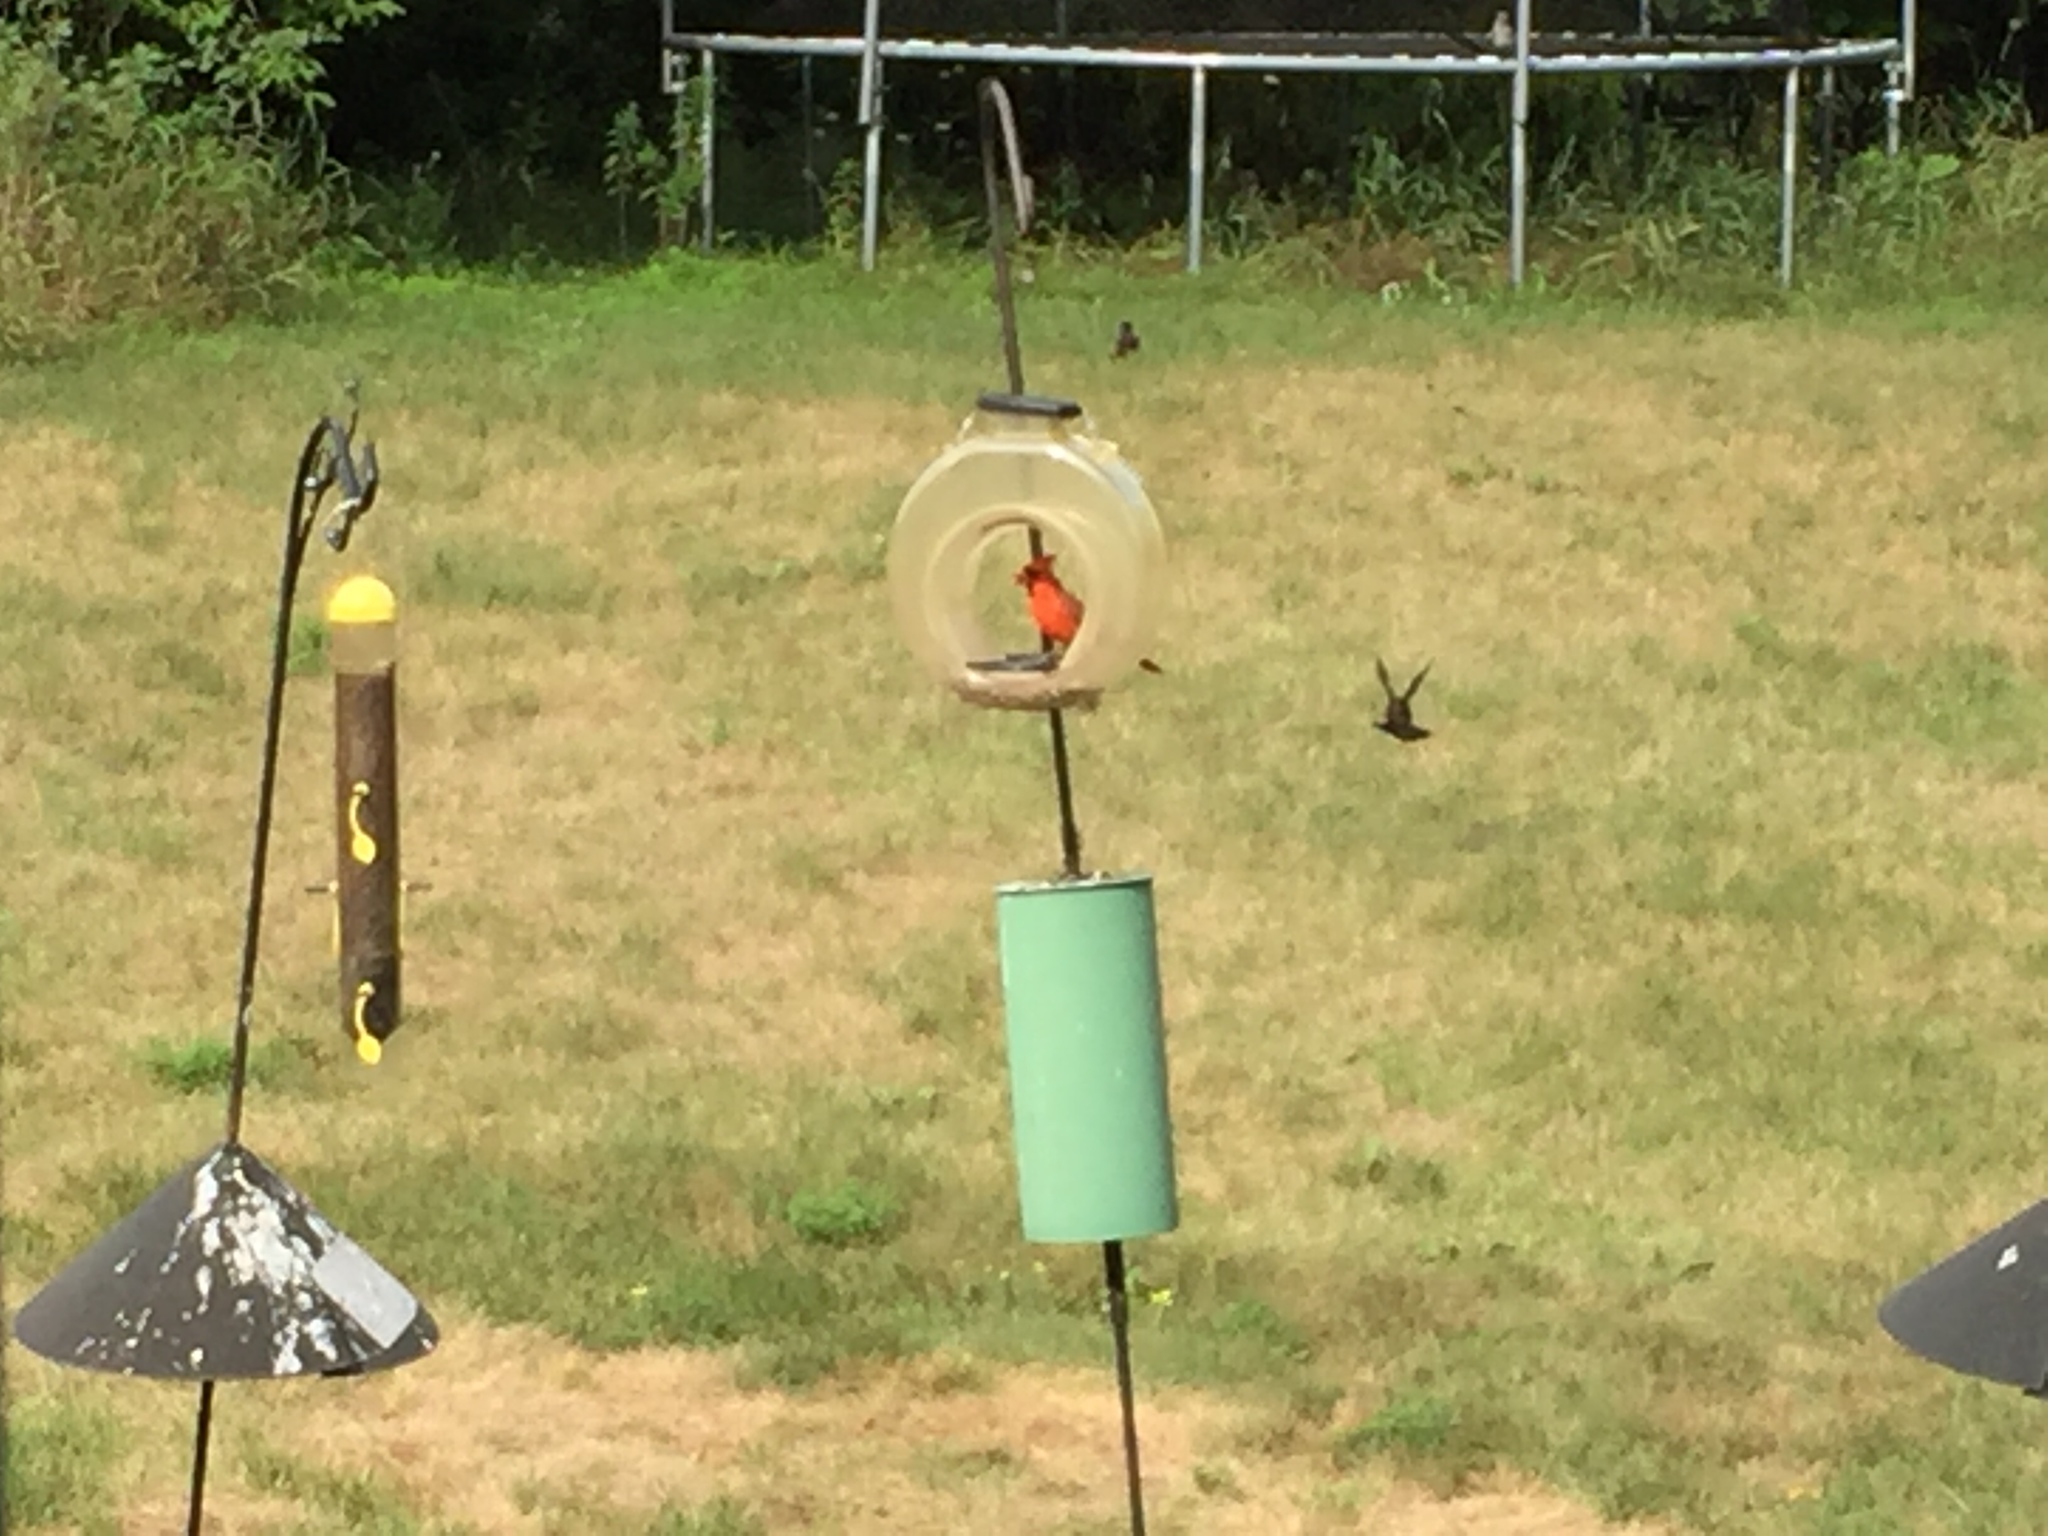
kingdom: Animalia
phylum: Chordata
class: Aves
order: Passeriformes
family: Cardinalidae
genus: Cardinalis
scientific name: Cardinalis cardinalis
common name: Northern cardinal
